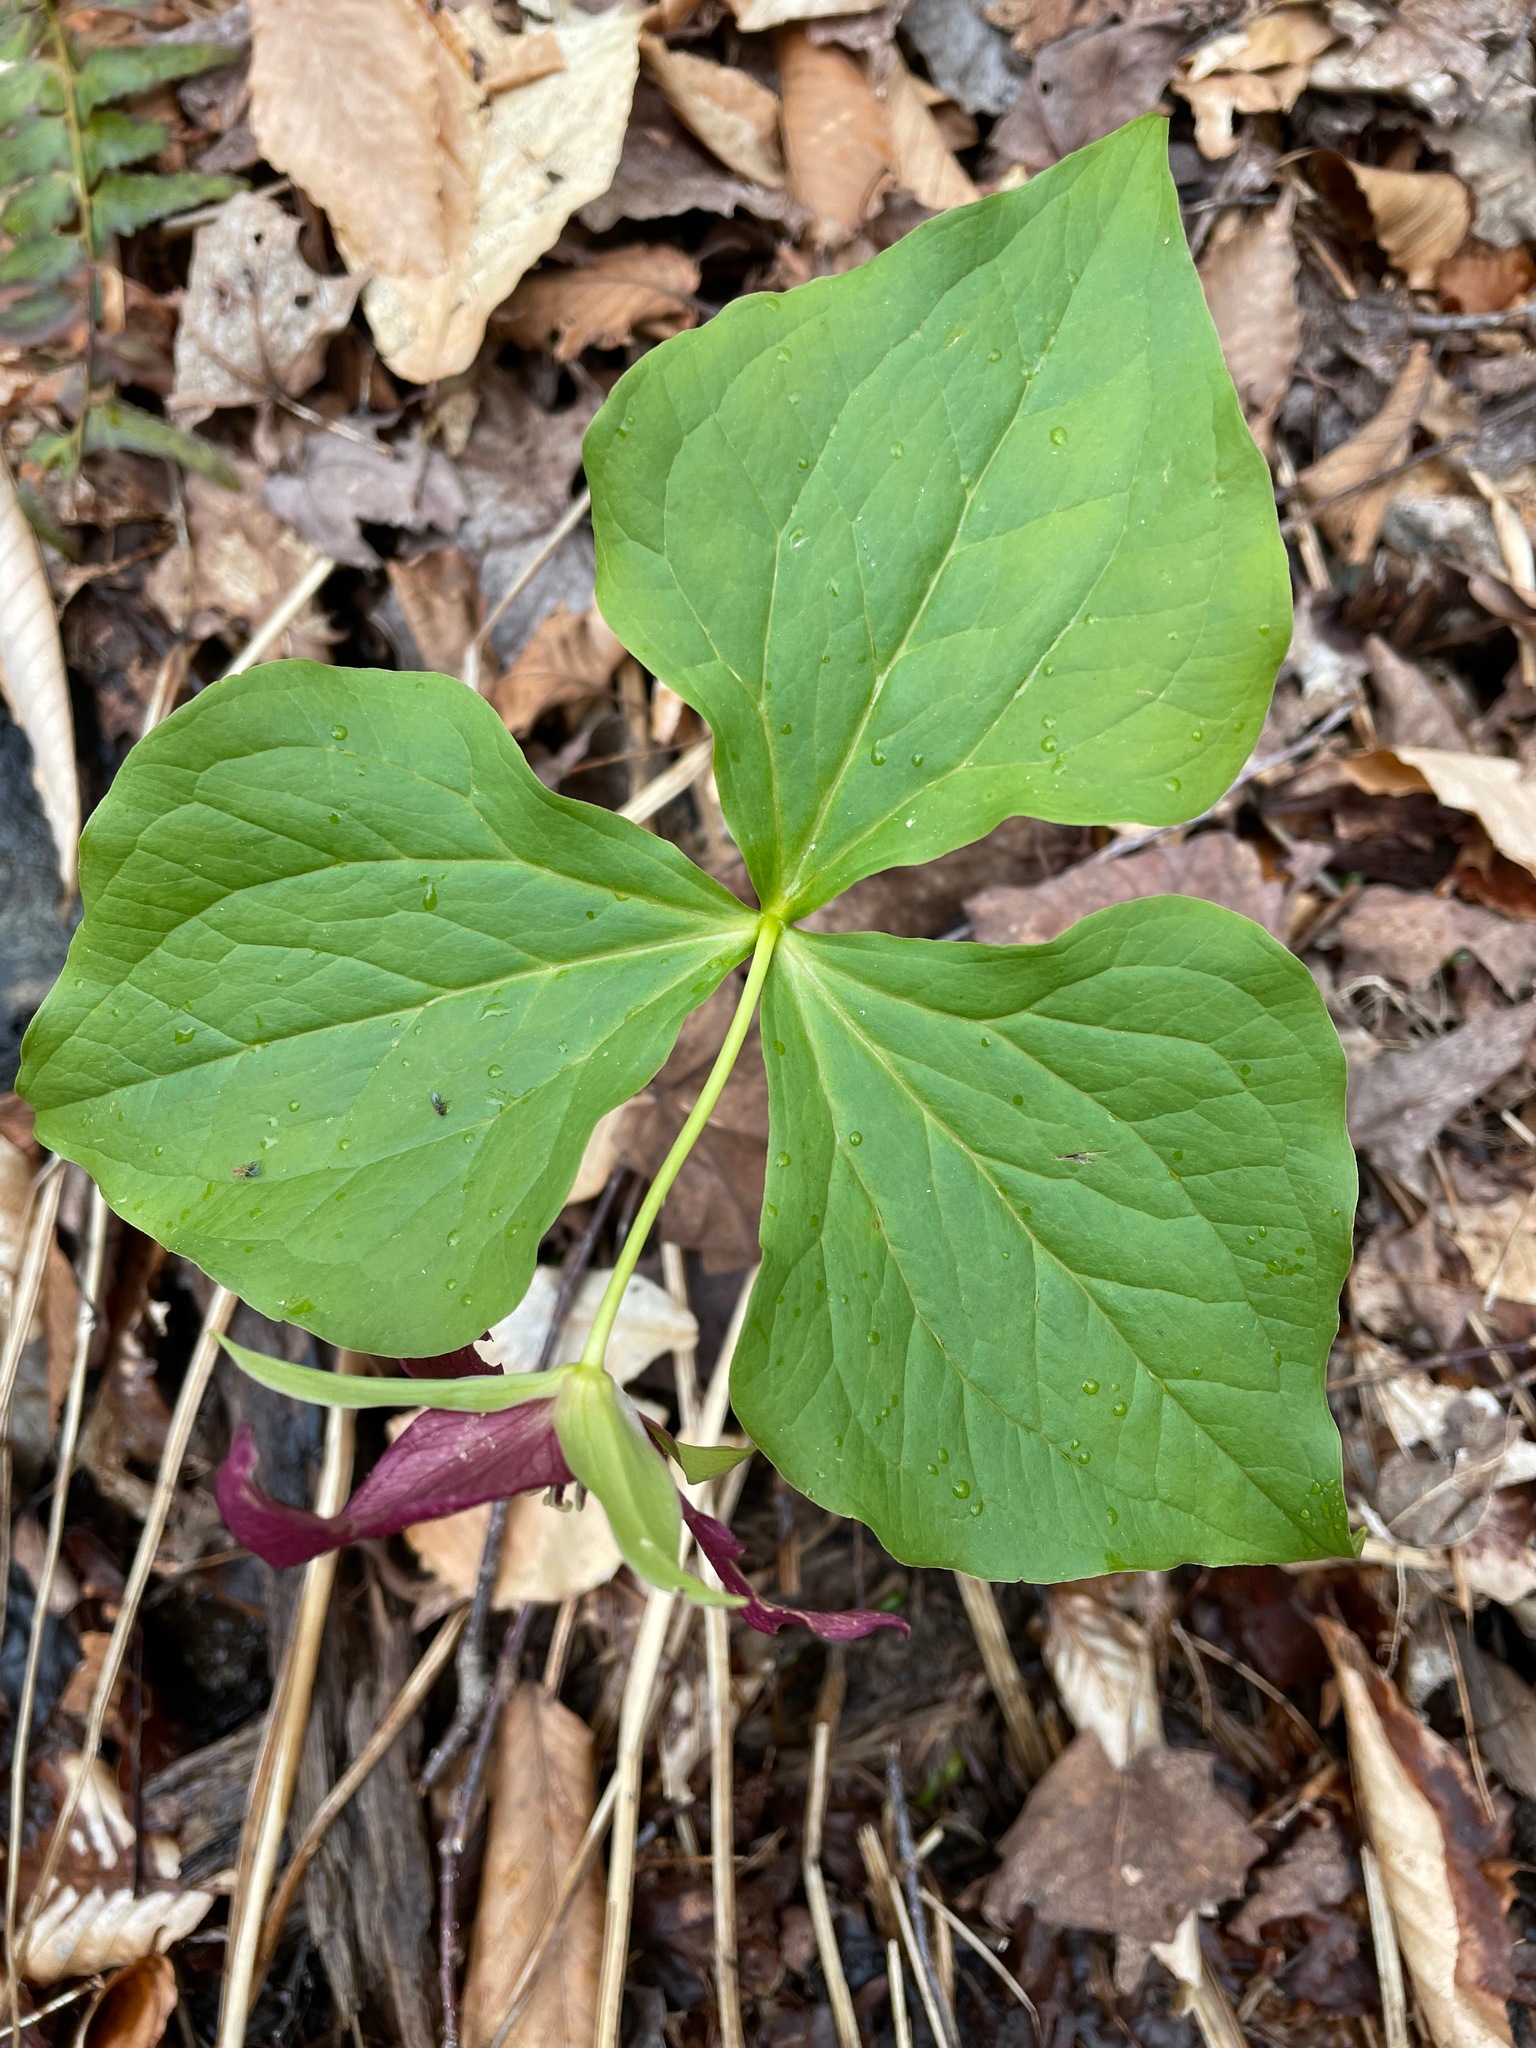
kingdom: Plantae
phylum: Tracheophyta
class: Liliopsida
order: Liliales
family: Melanthiaceae
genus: Trillium
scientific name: Trillium erectum
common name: Purple trillium
